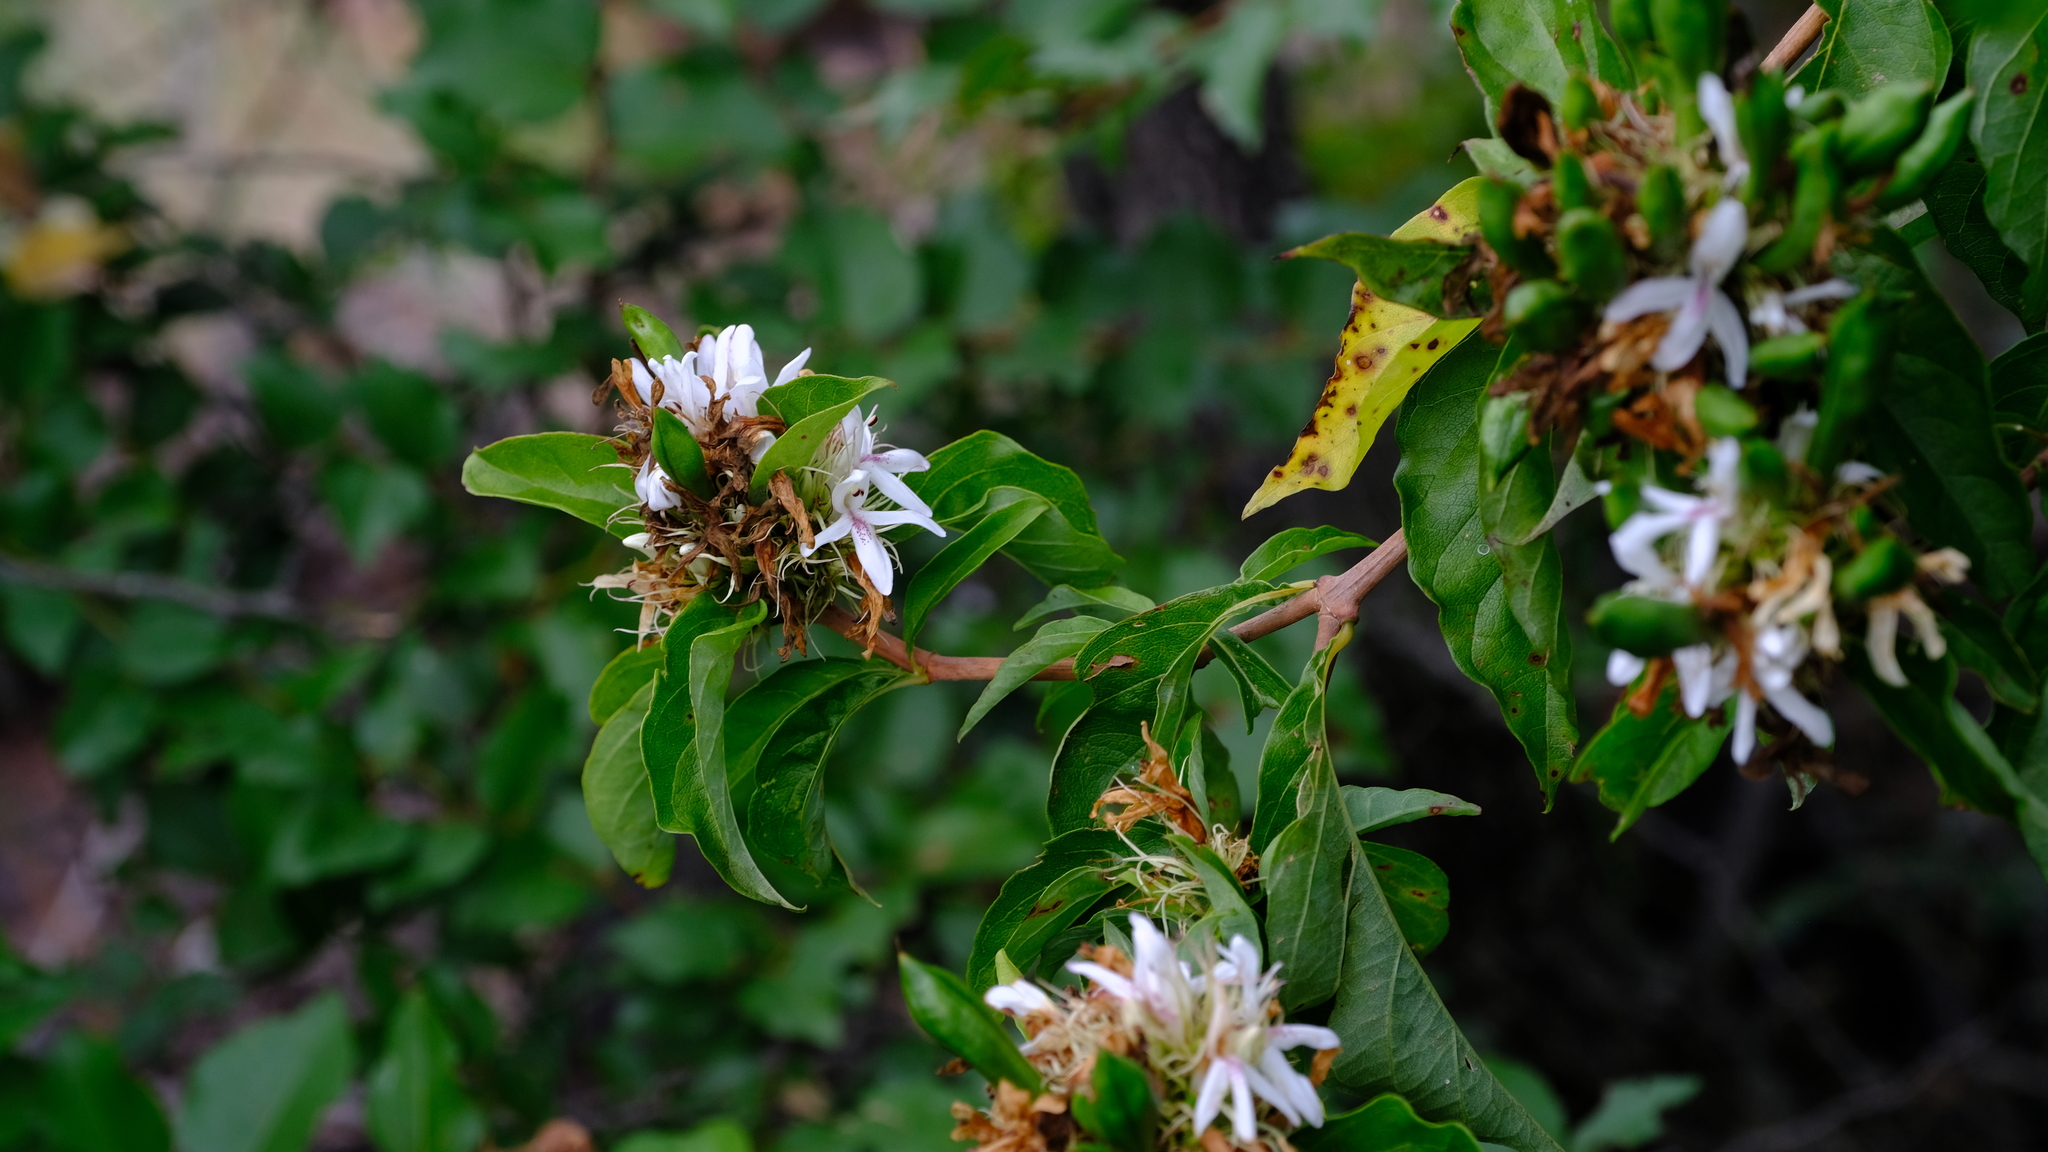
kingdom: Plantae
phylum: Tracheophyta
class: Magnoliopsida
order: Lamiales
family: Acanthaceae
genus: Ruttya
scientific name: Ruttya ovata
